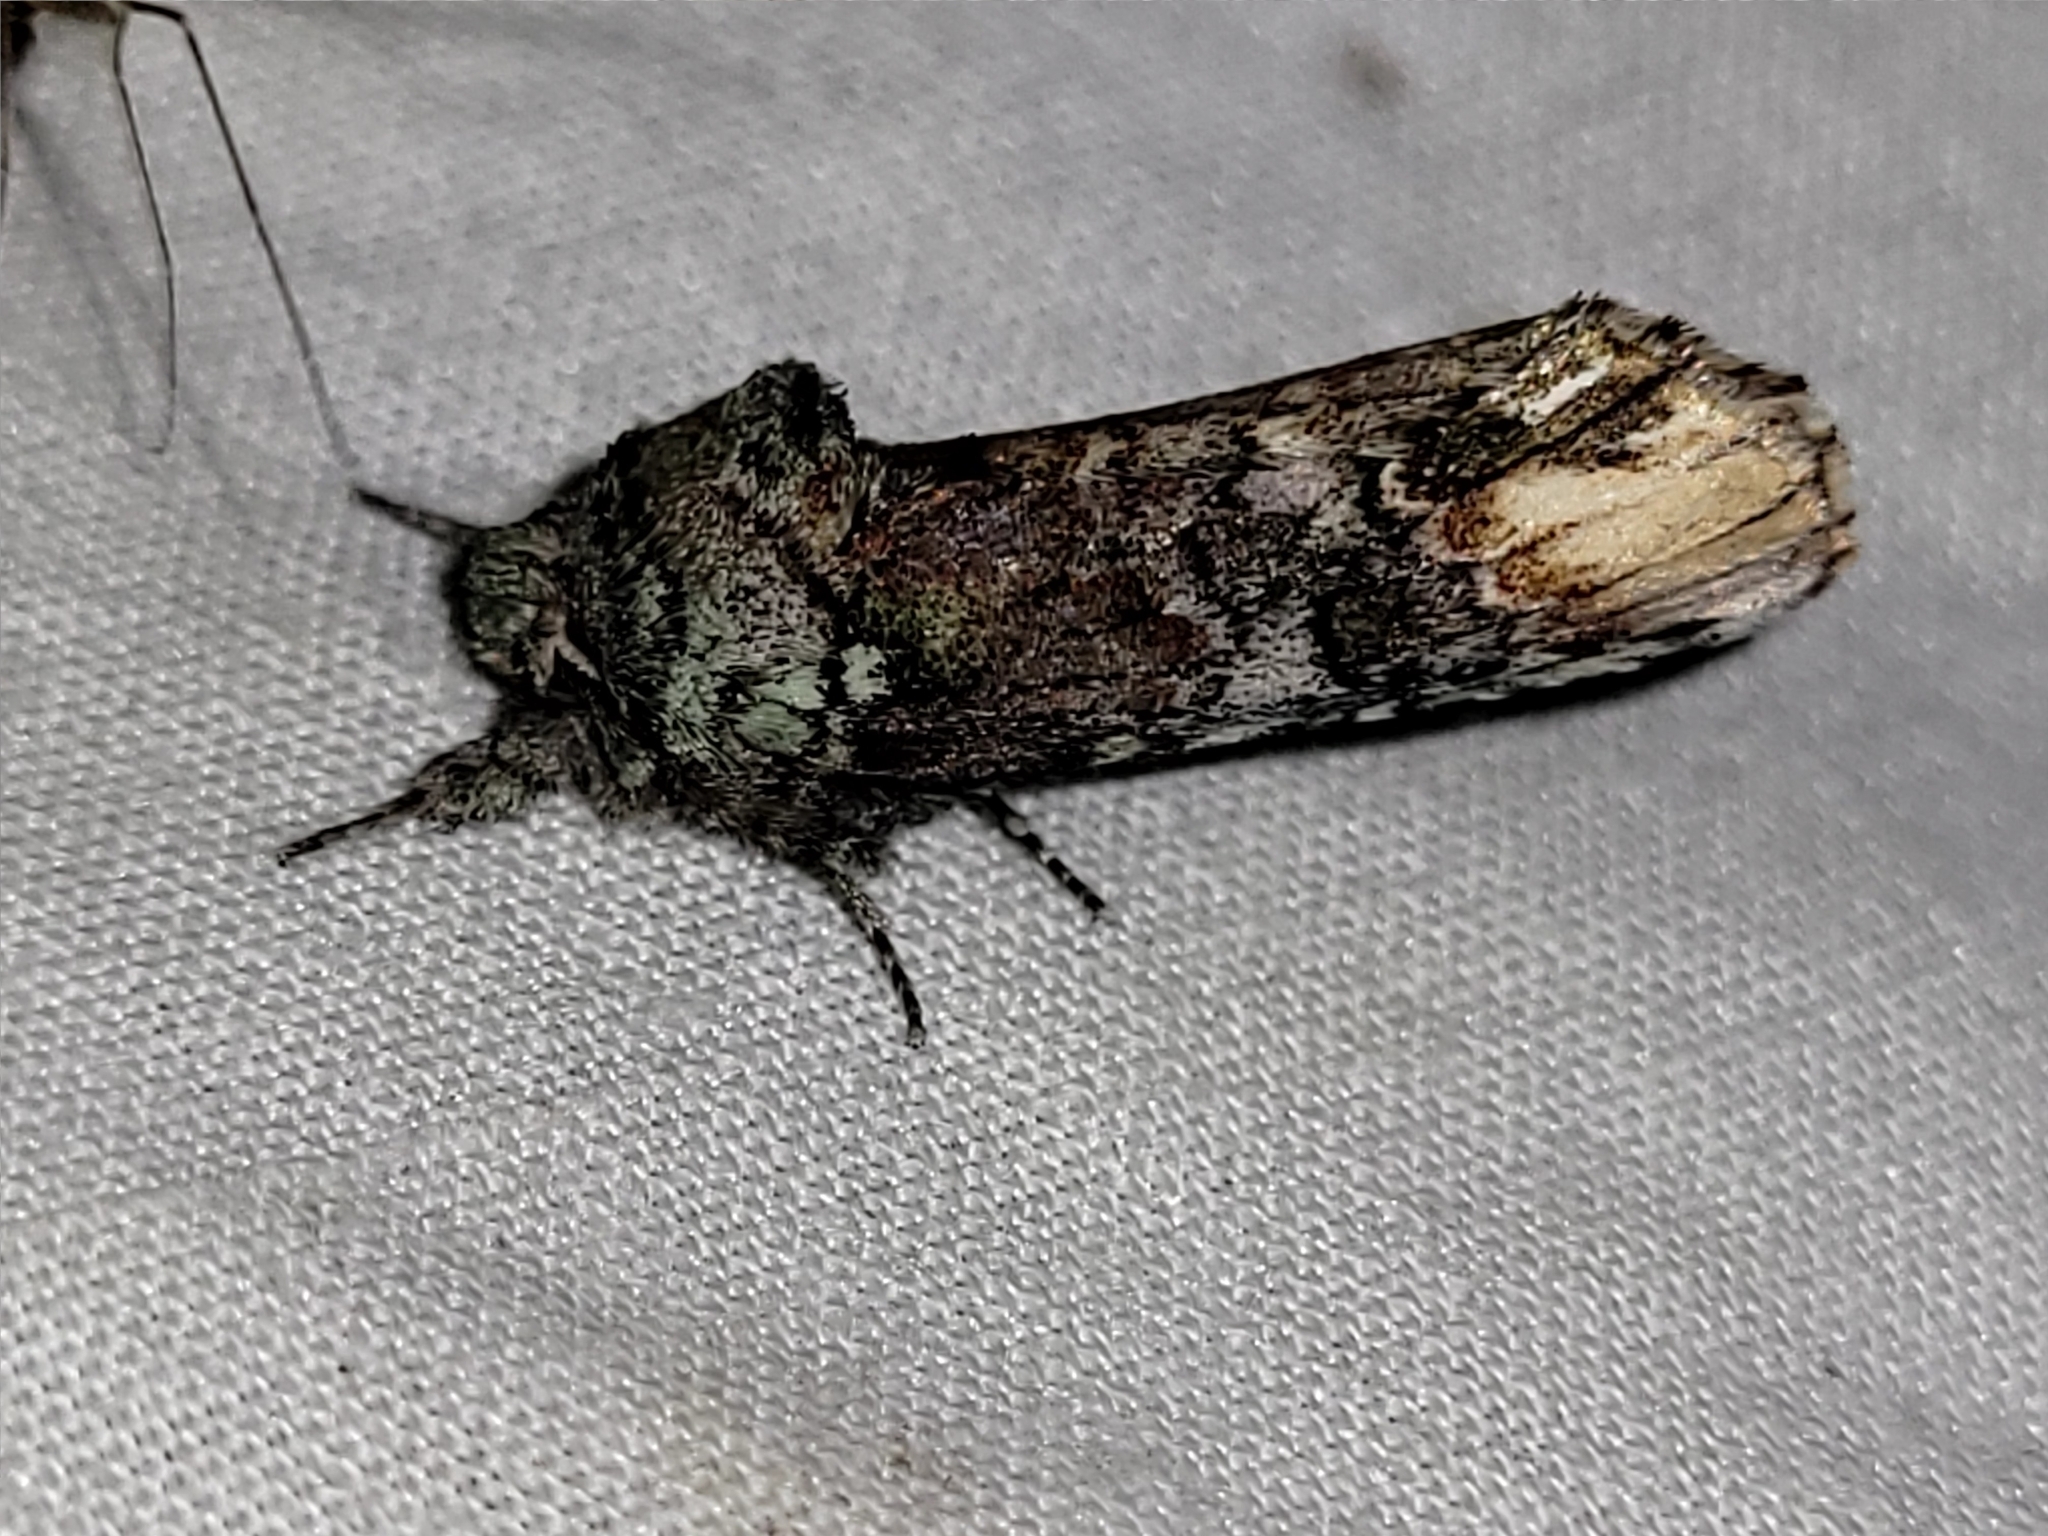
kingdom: Animalia
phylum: Arthropoda
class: Insecta
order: Lepidoptera
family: Notodontidae
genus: Schizura
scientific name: Schizura
